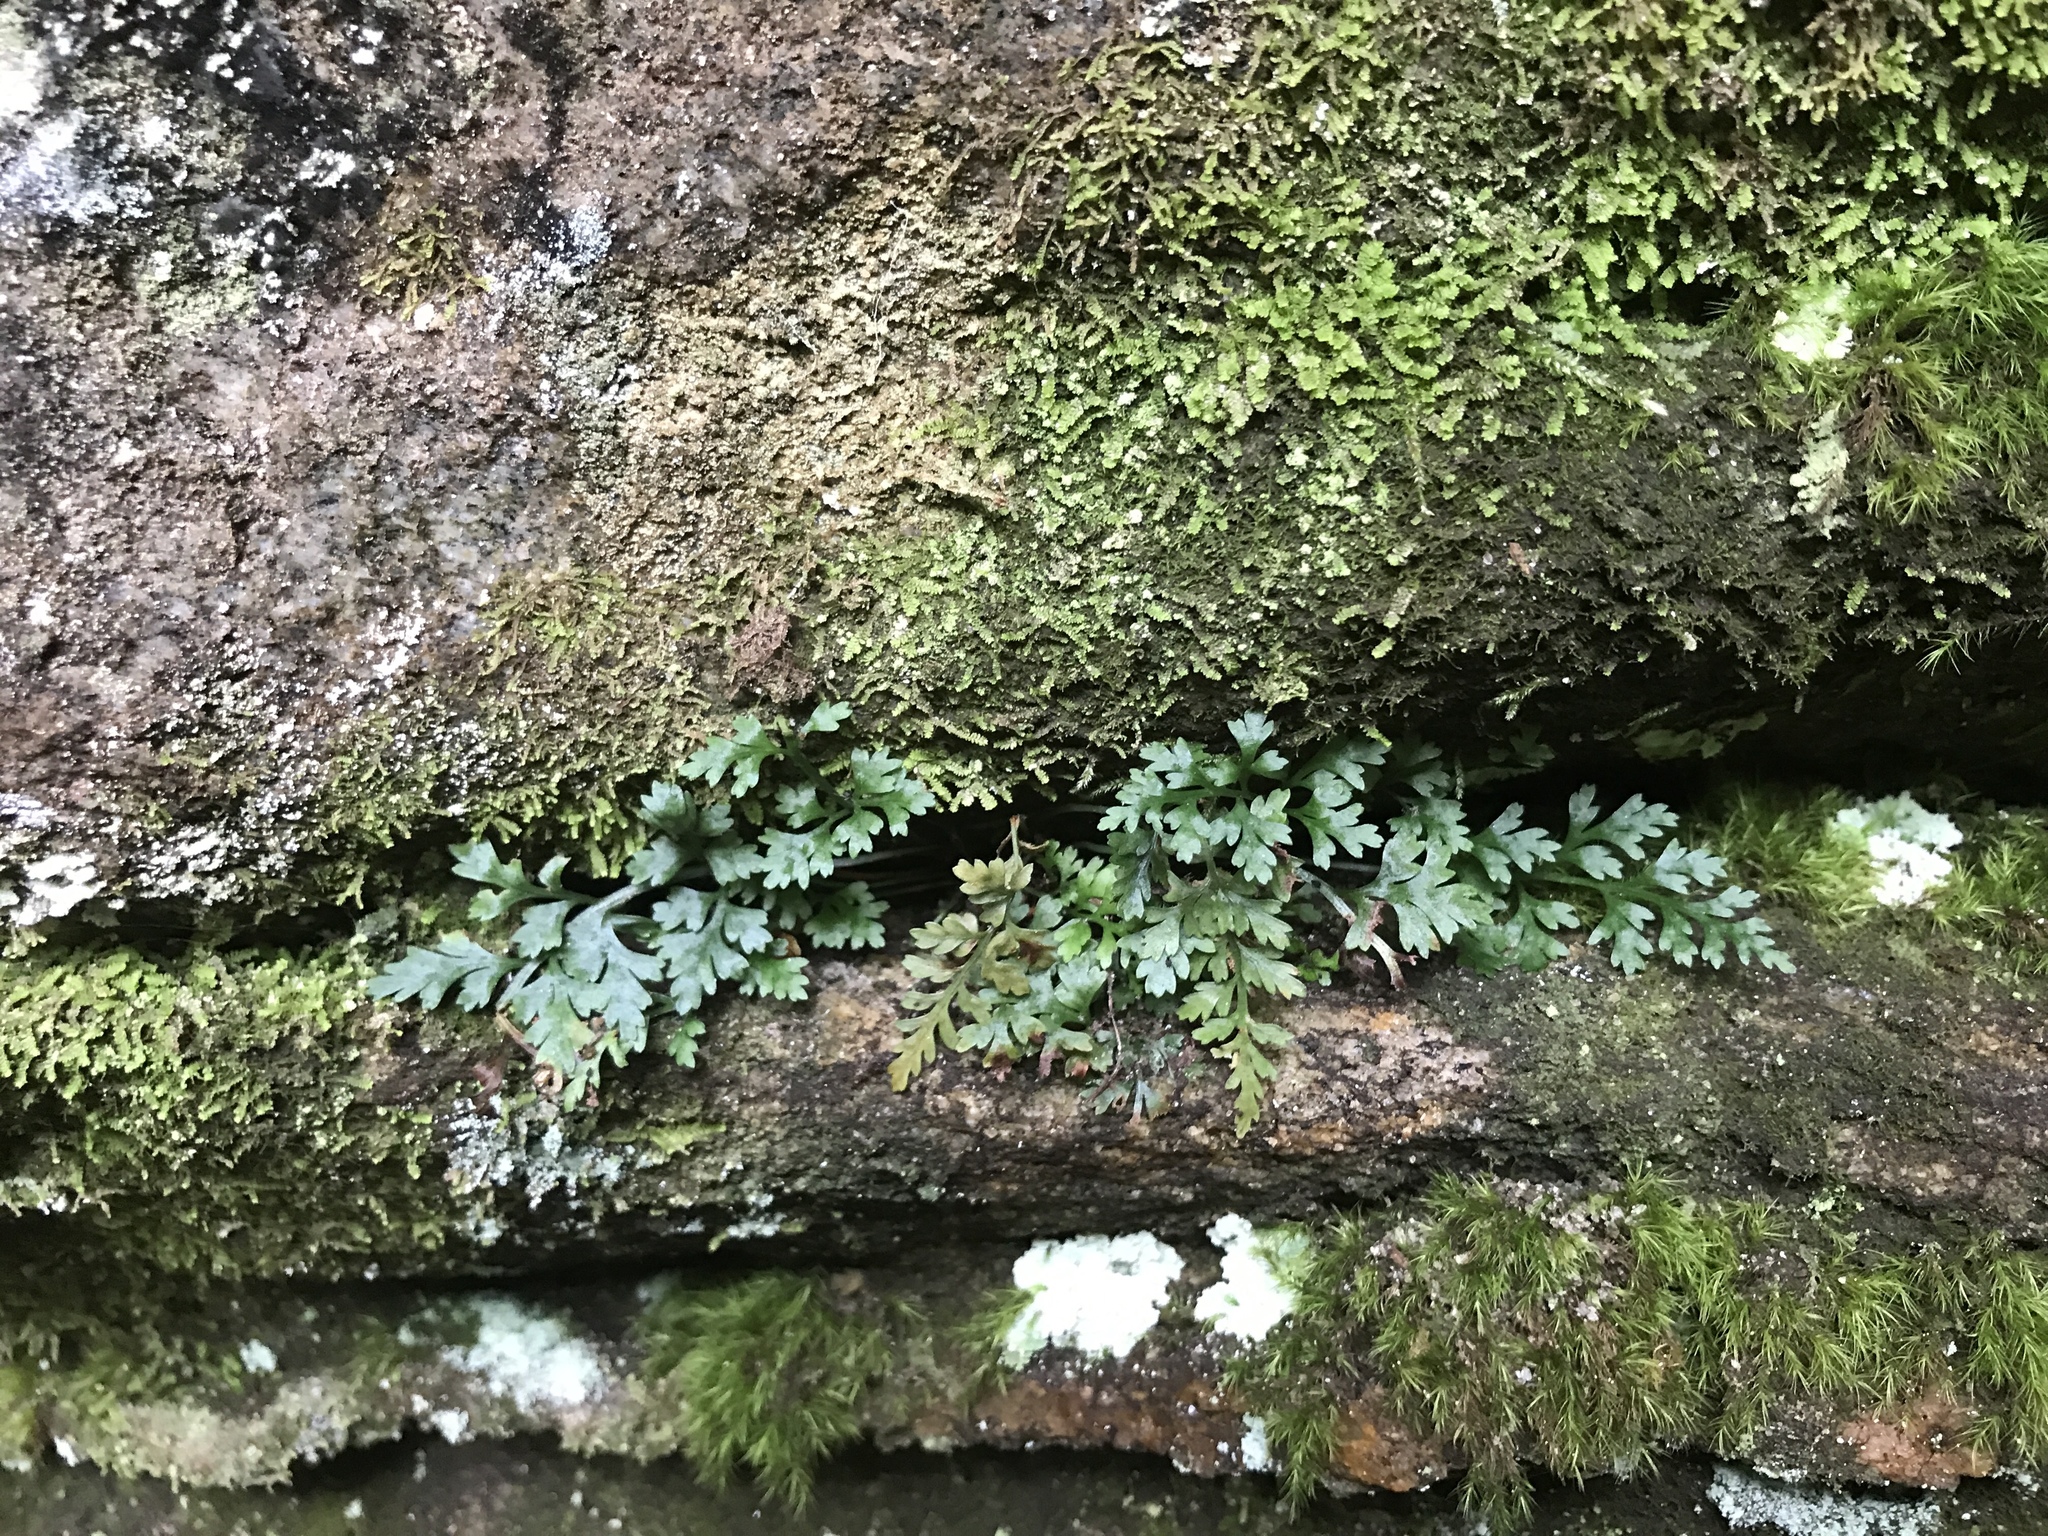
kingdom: Plantae
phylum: Tracheophyta
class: Polypodiopsida
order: Polypodiales
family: Aspleniaceae
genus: Asplenium
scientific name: Asplenium montanum
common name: Mountain spleenwort
